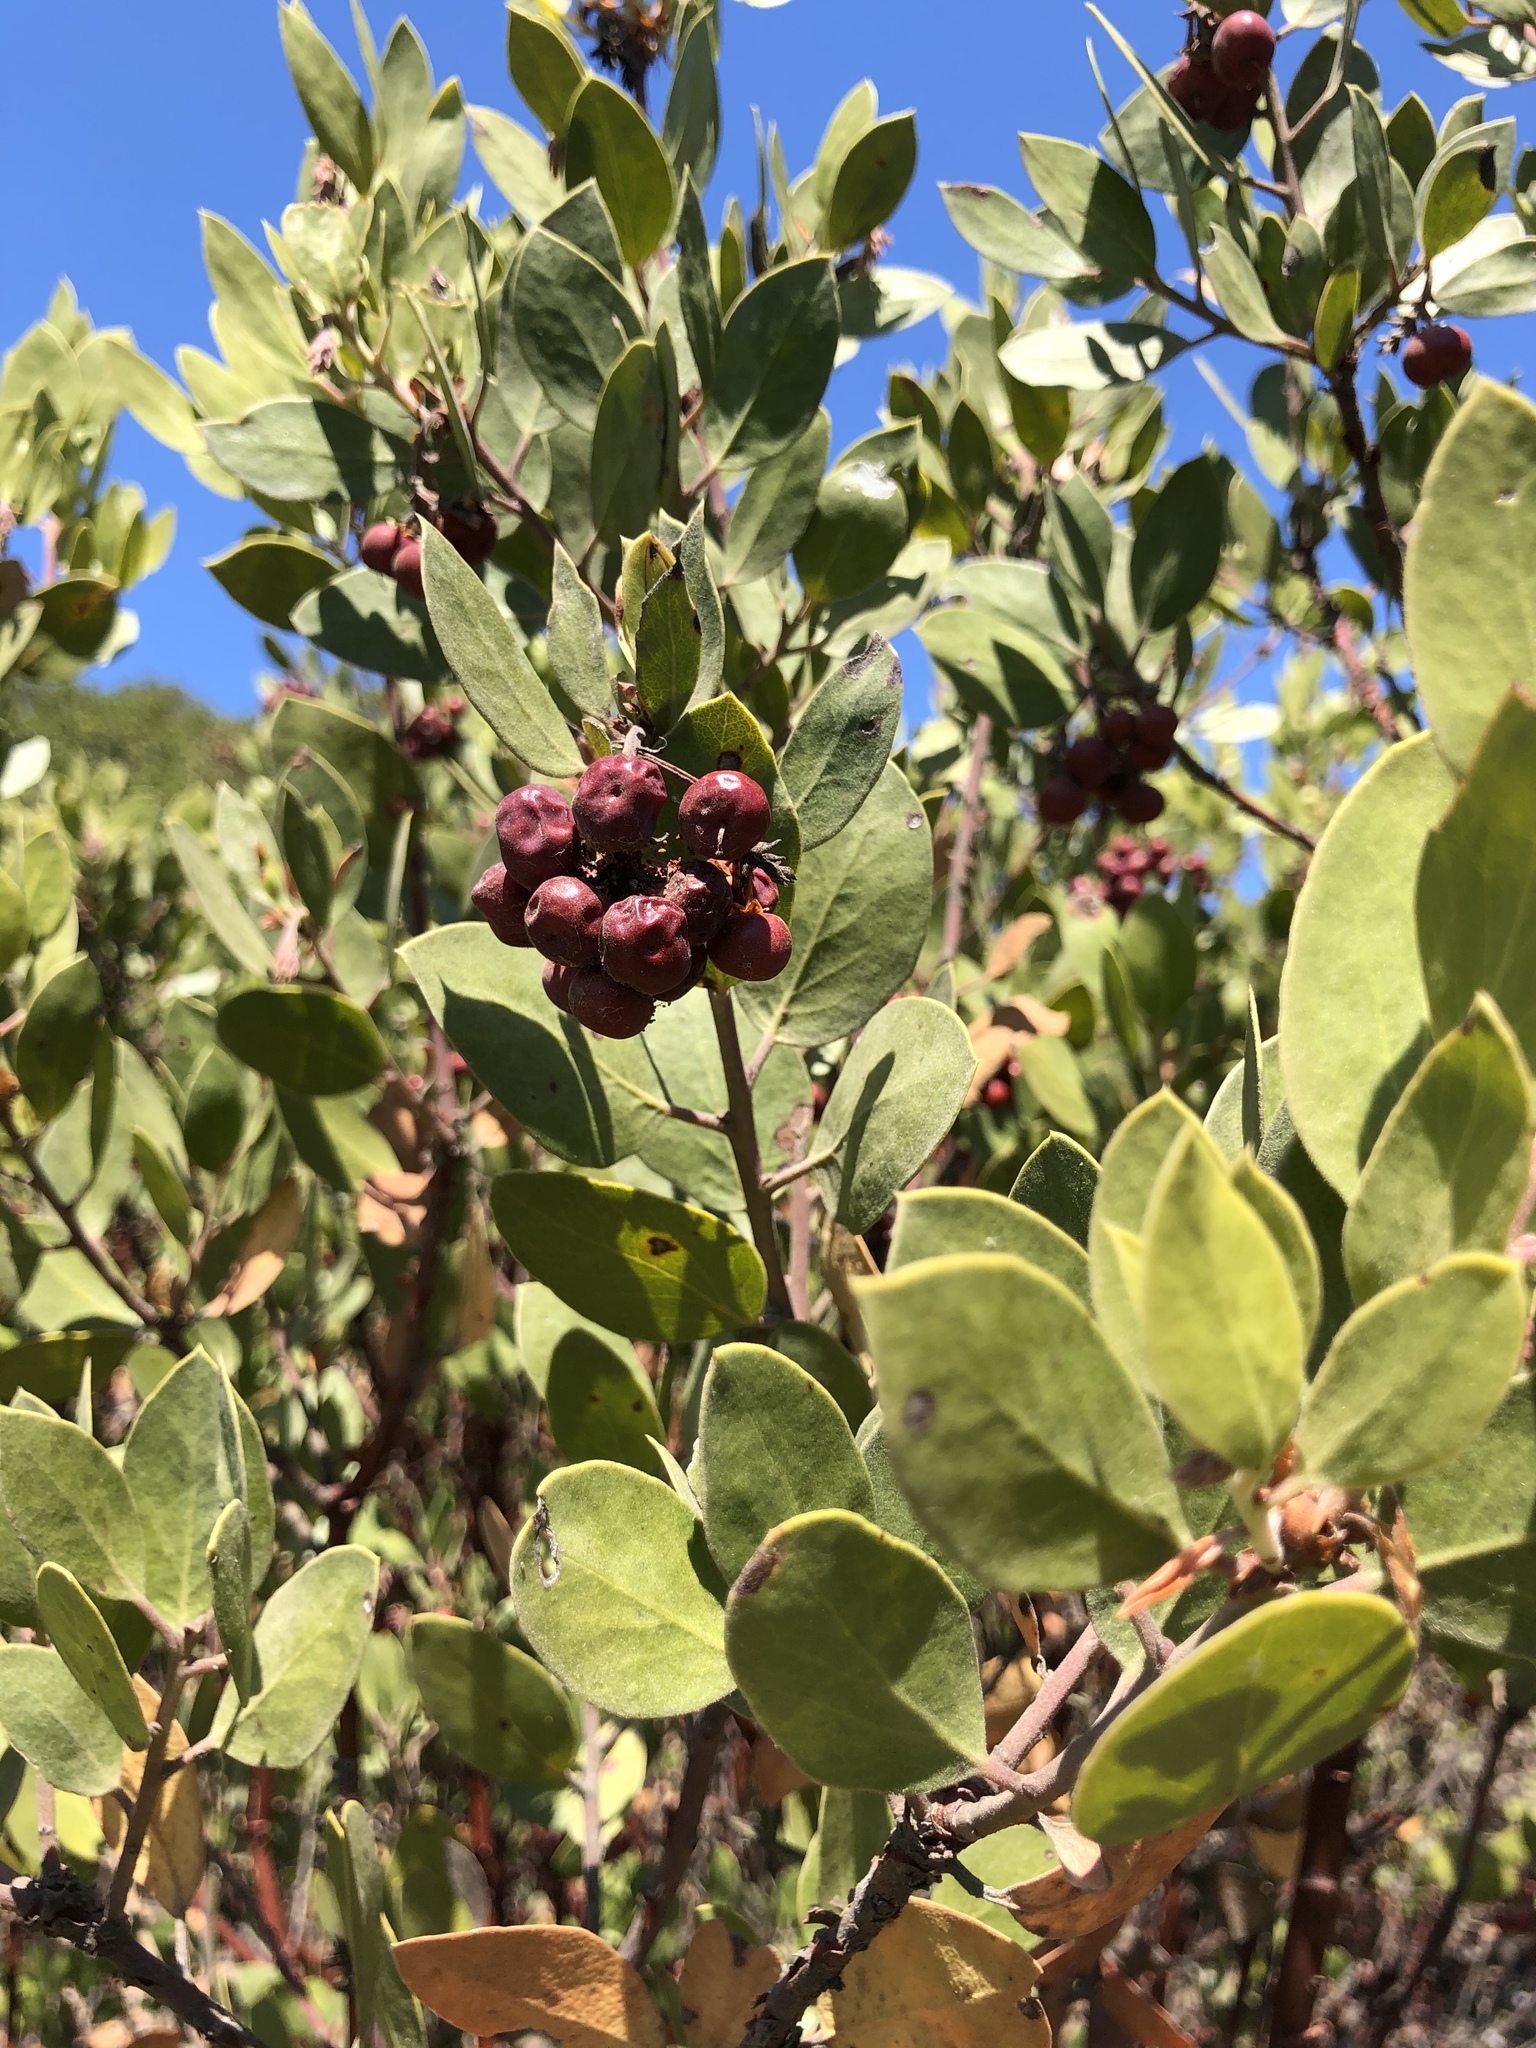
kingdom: Plantae
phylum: Tracheophyta
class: Magnoliopsida
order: Ericales
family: Ericaceae
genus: Arctostaphylos
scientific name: Arctostaphylos manzanita
